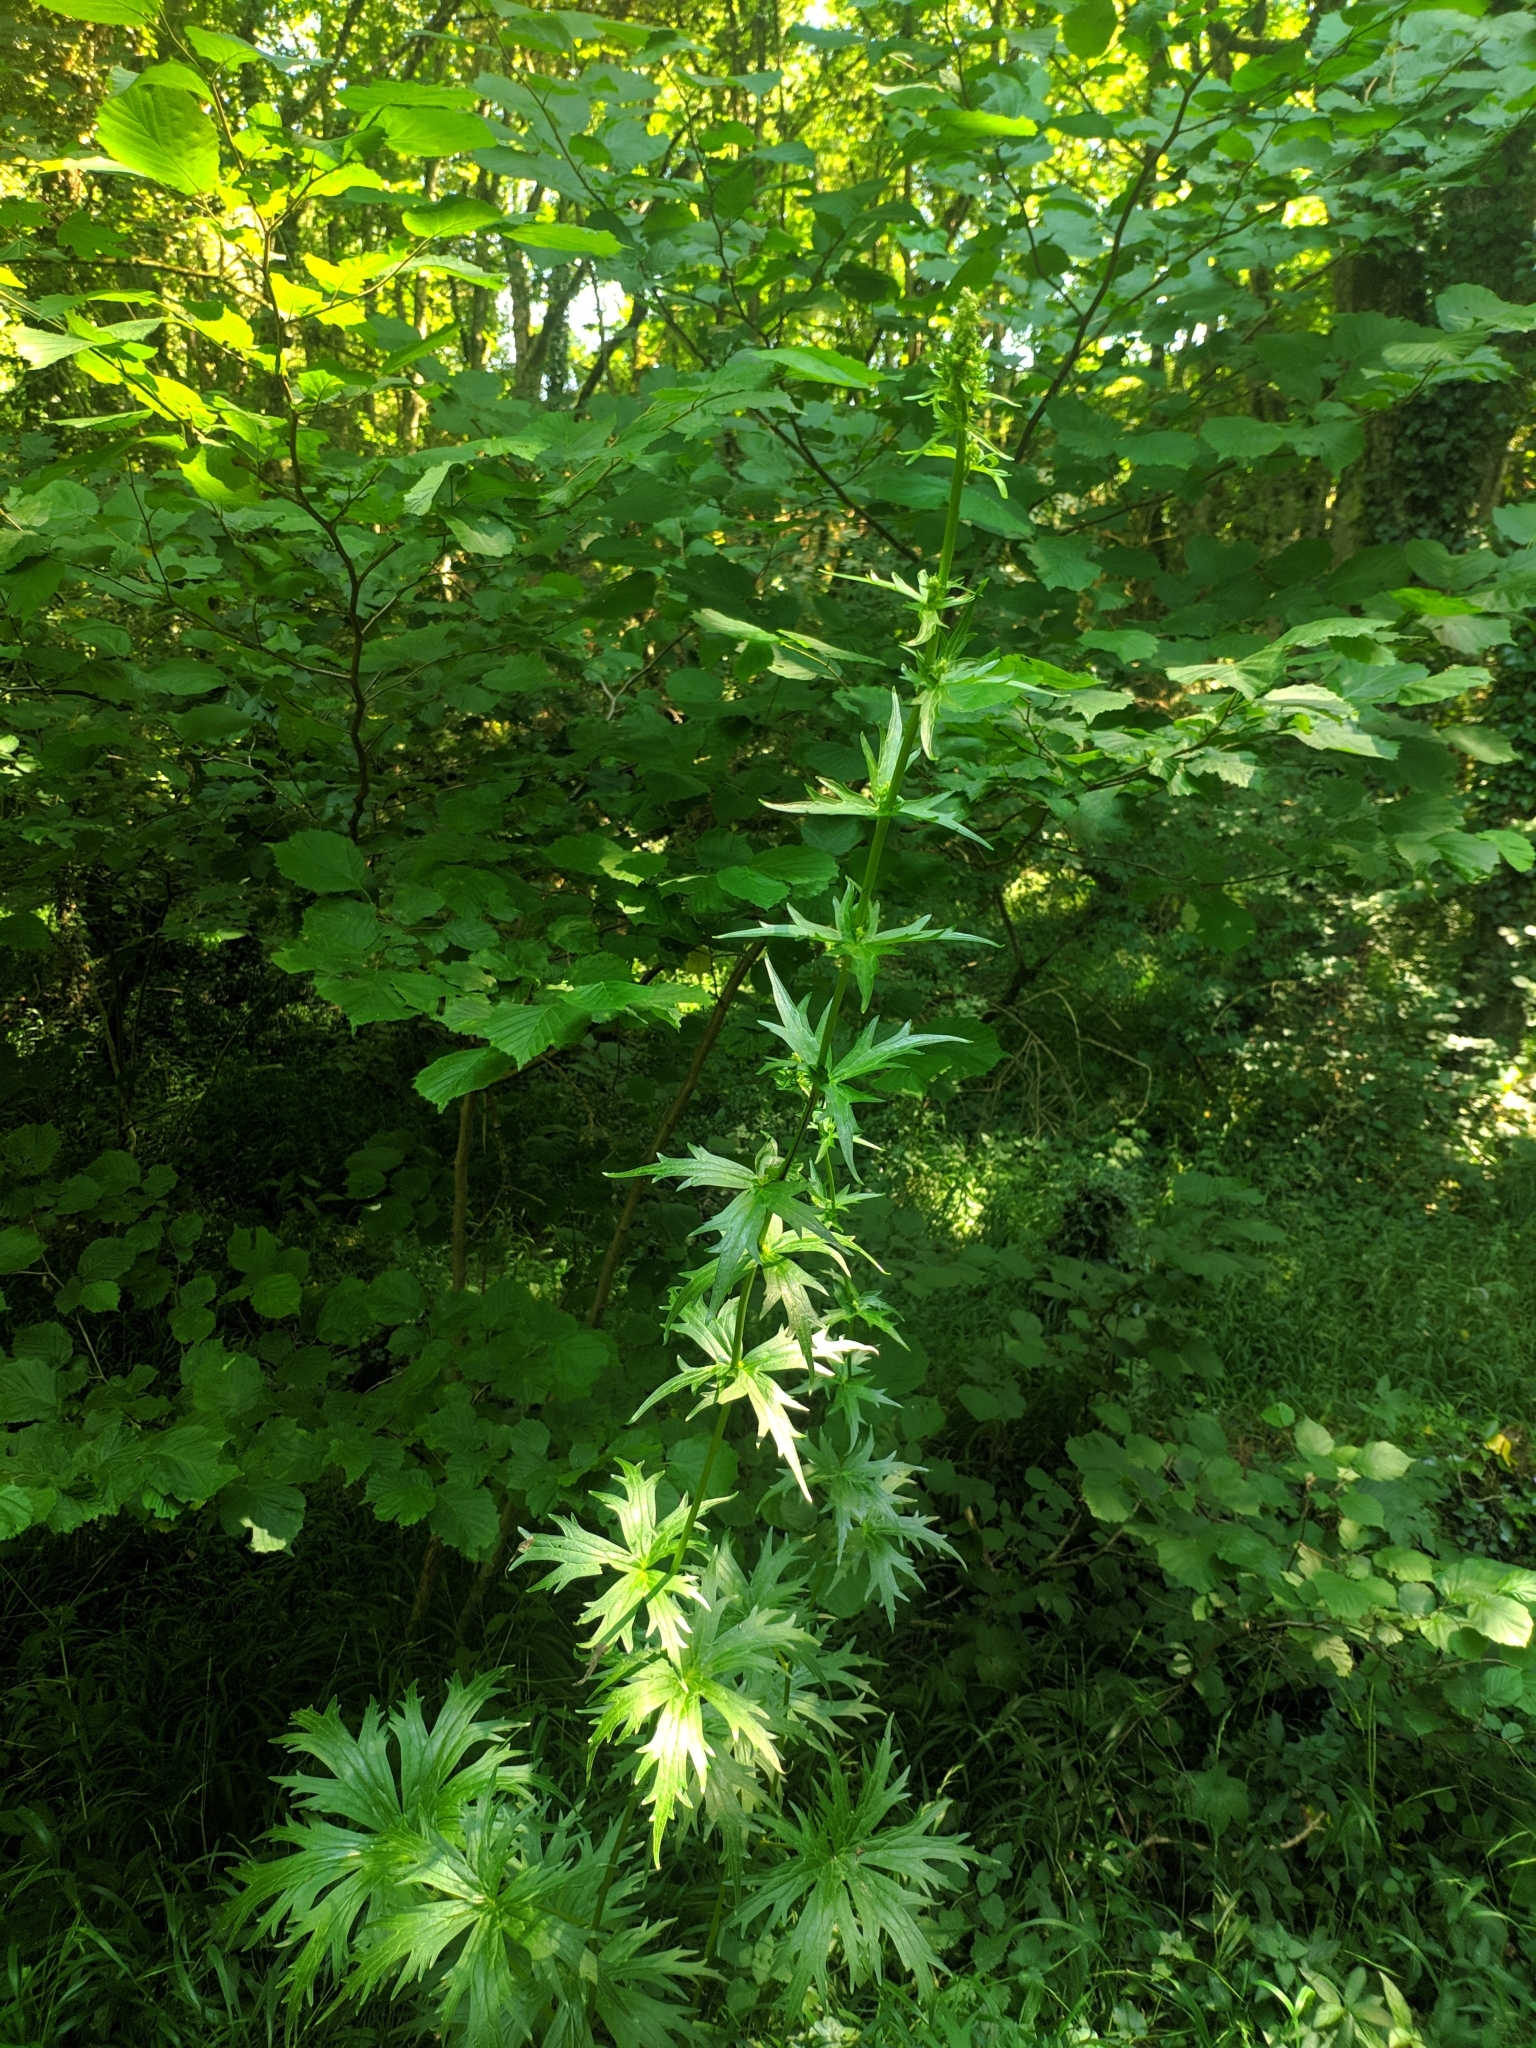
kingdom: Plantae
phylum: Tracheophyta
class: Magnoliopsida
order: Ranunculales
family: Ranunculaceae
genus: Aconitum
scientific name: Aconitum lamarckii
